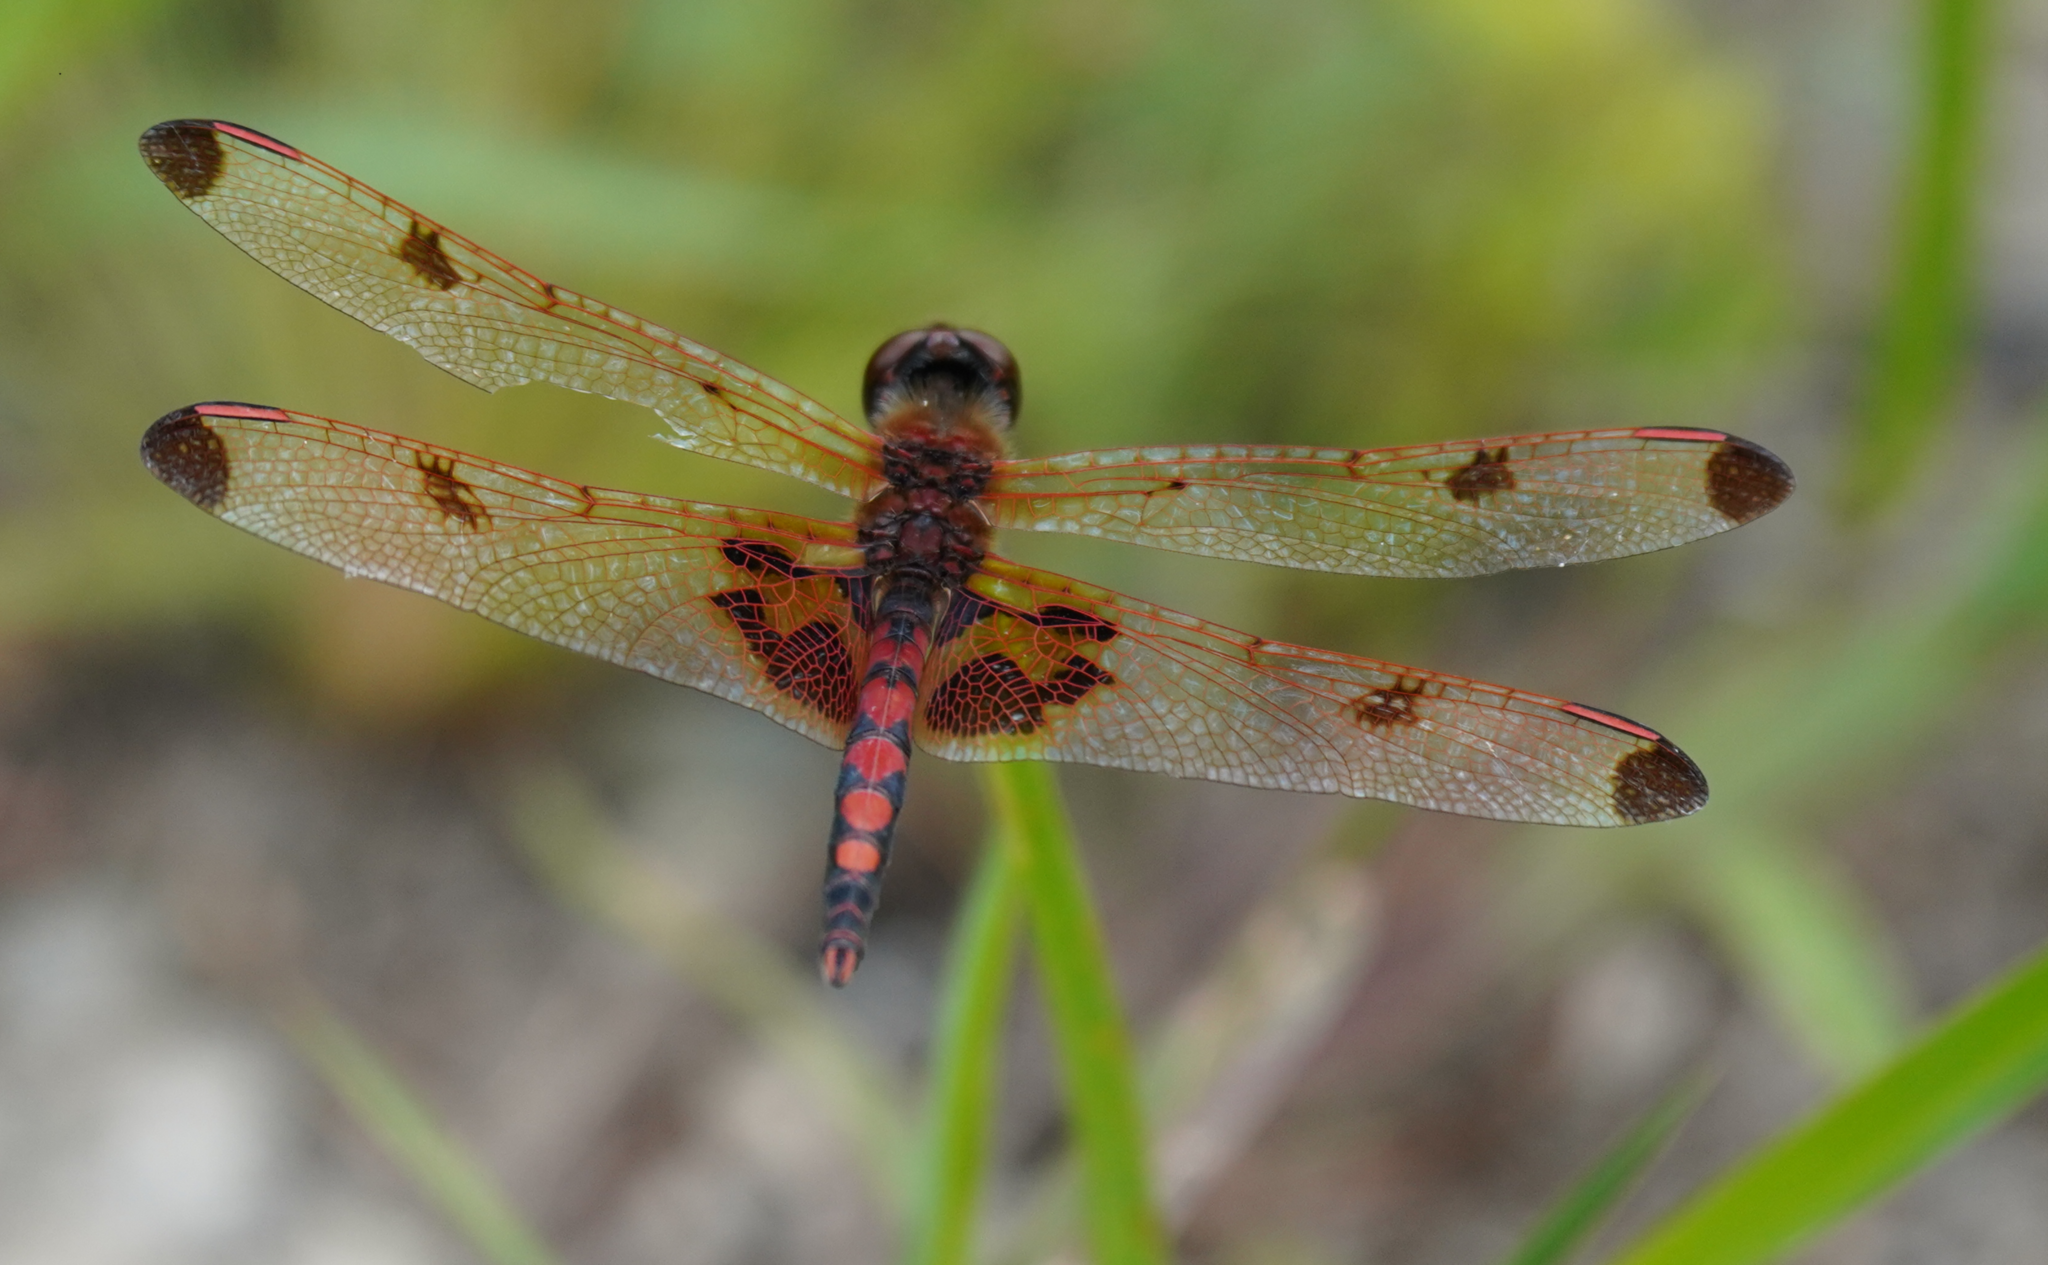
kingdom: Animalia
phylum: Arthropoda
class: Insecta
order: Odonata
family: Libellulidae
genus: Celithemis
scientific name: Celithemis elisa
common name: Calico pennant
